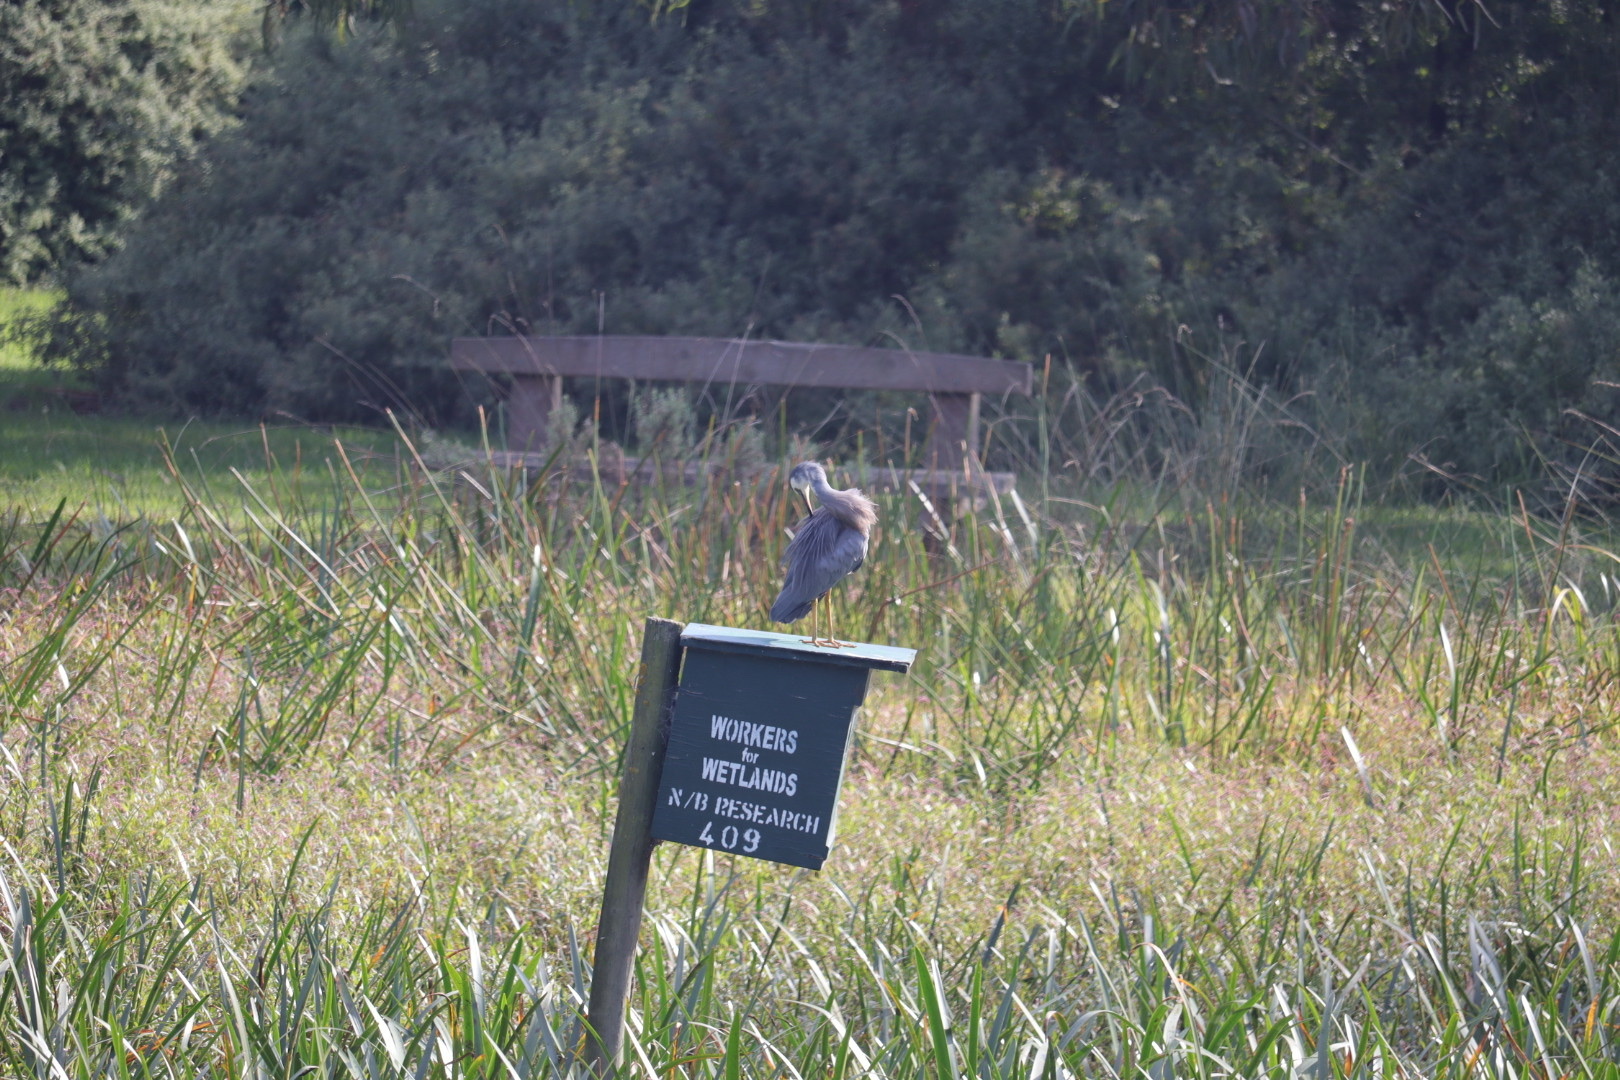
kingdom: Animalia
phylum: Chordata
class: Aves
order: Pelecaniformes
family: Ardeidae
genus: Egretta
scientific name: Egretta novaehollandiae
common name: White-faced heron
